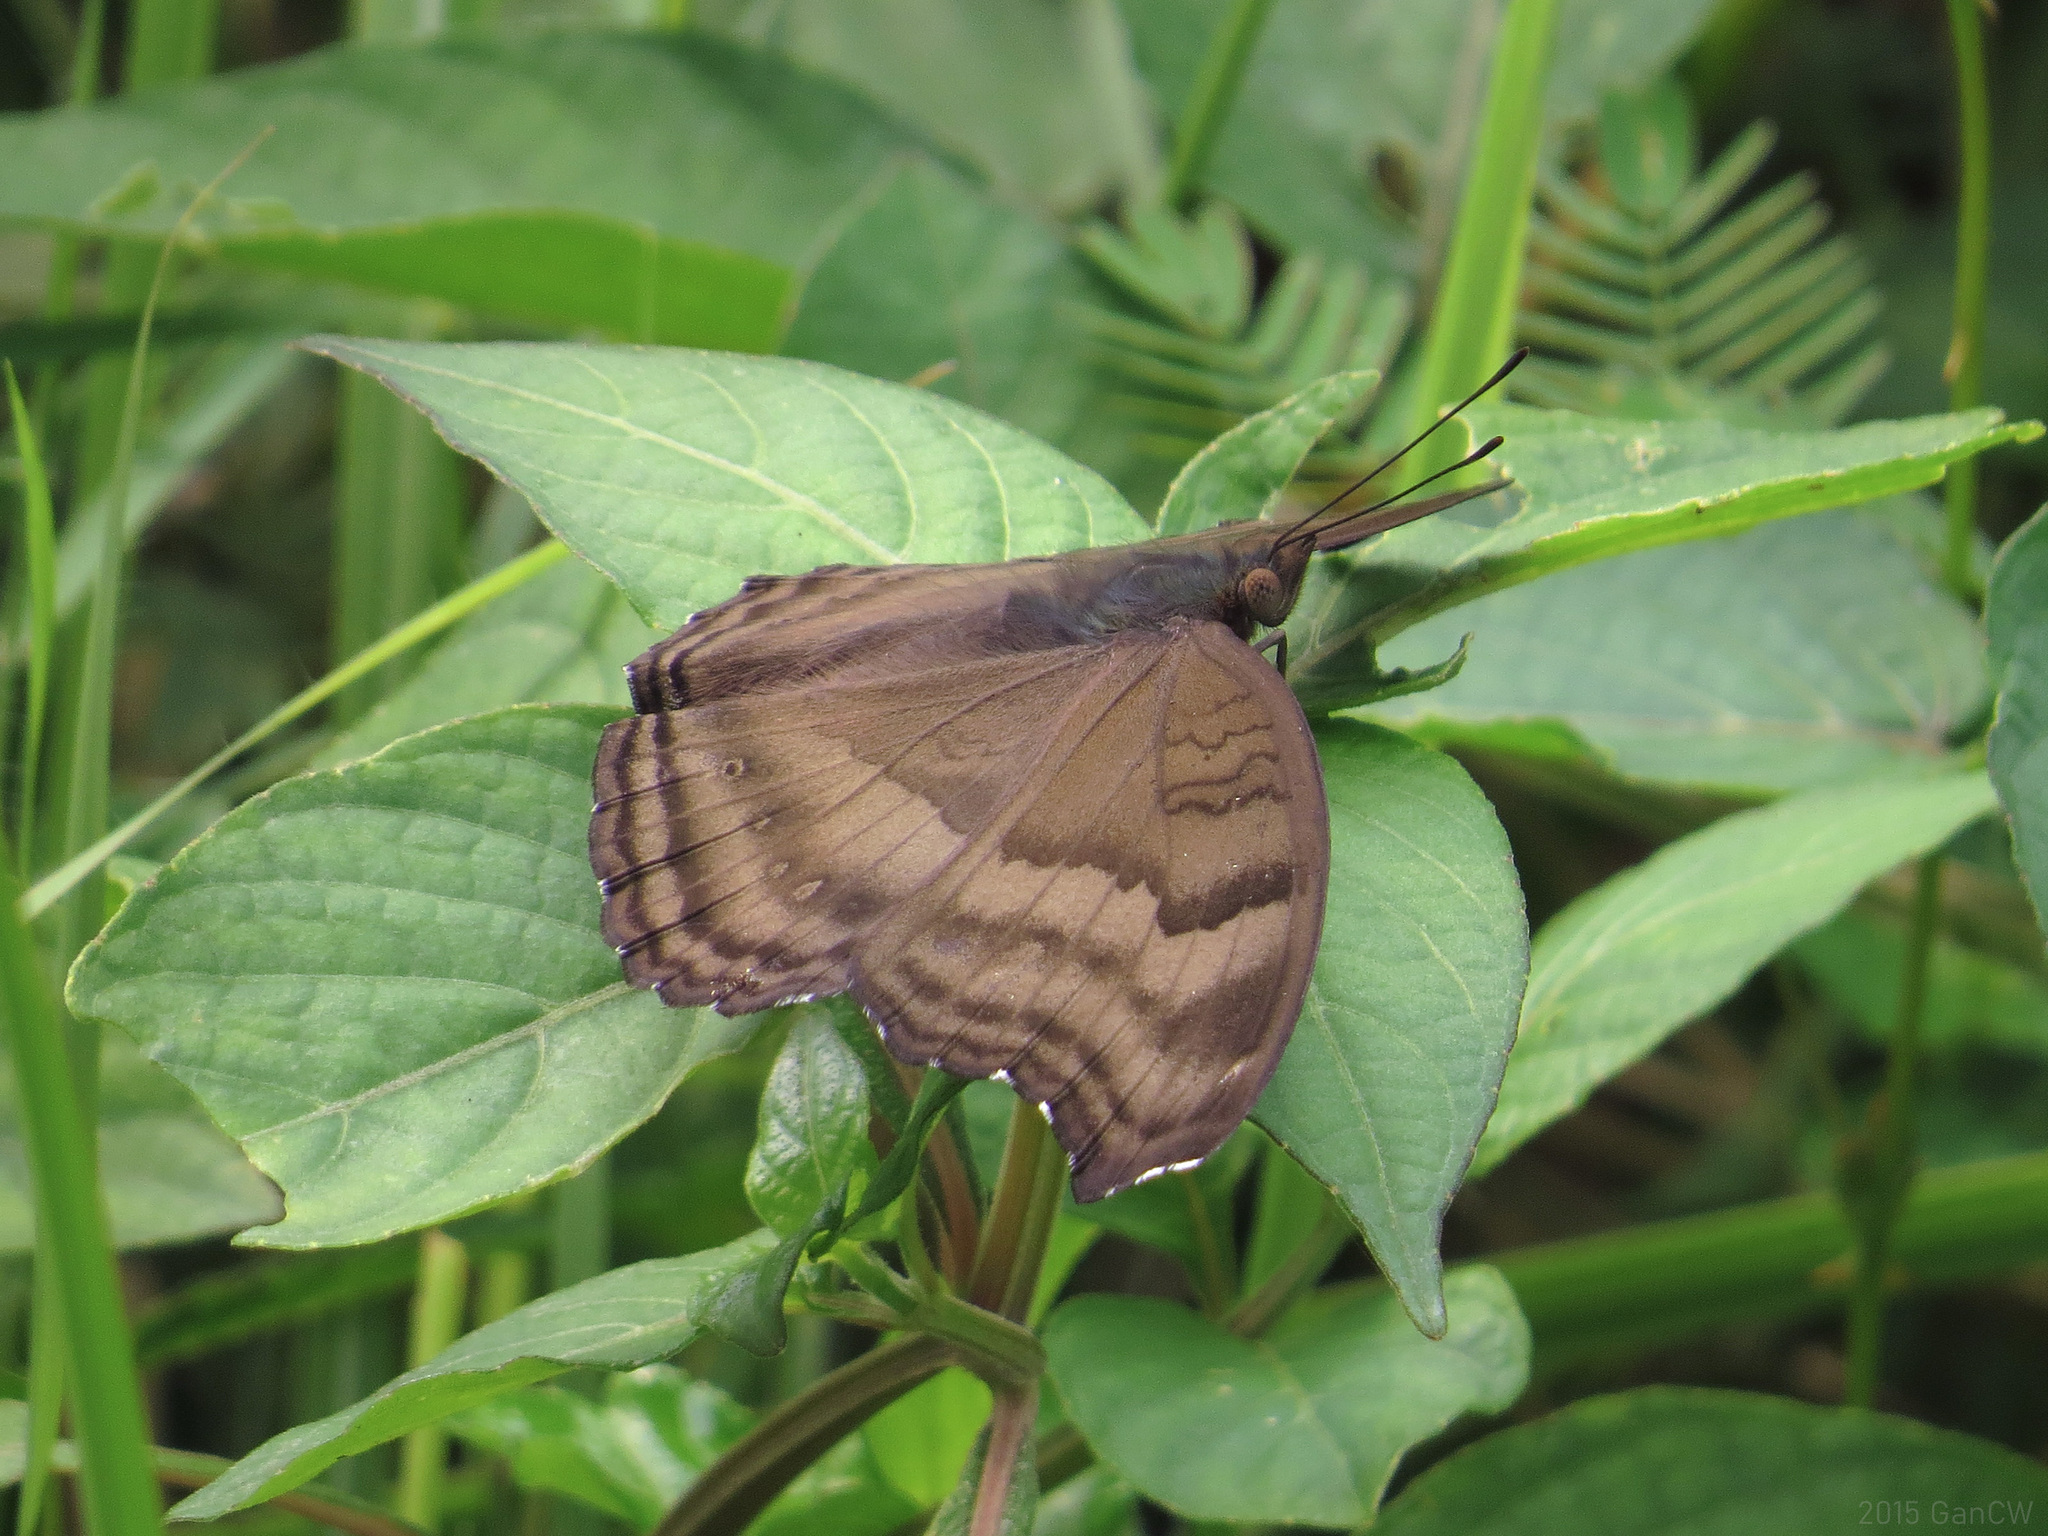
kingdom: Animalia
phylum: Arthropoda
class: Insecta
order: Lepidoptera
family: Nymphalidae
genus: Junonia
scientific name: Junonia iphita
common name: Chocolate pansy
